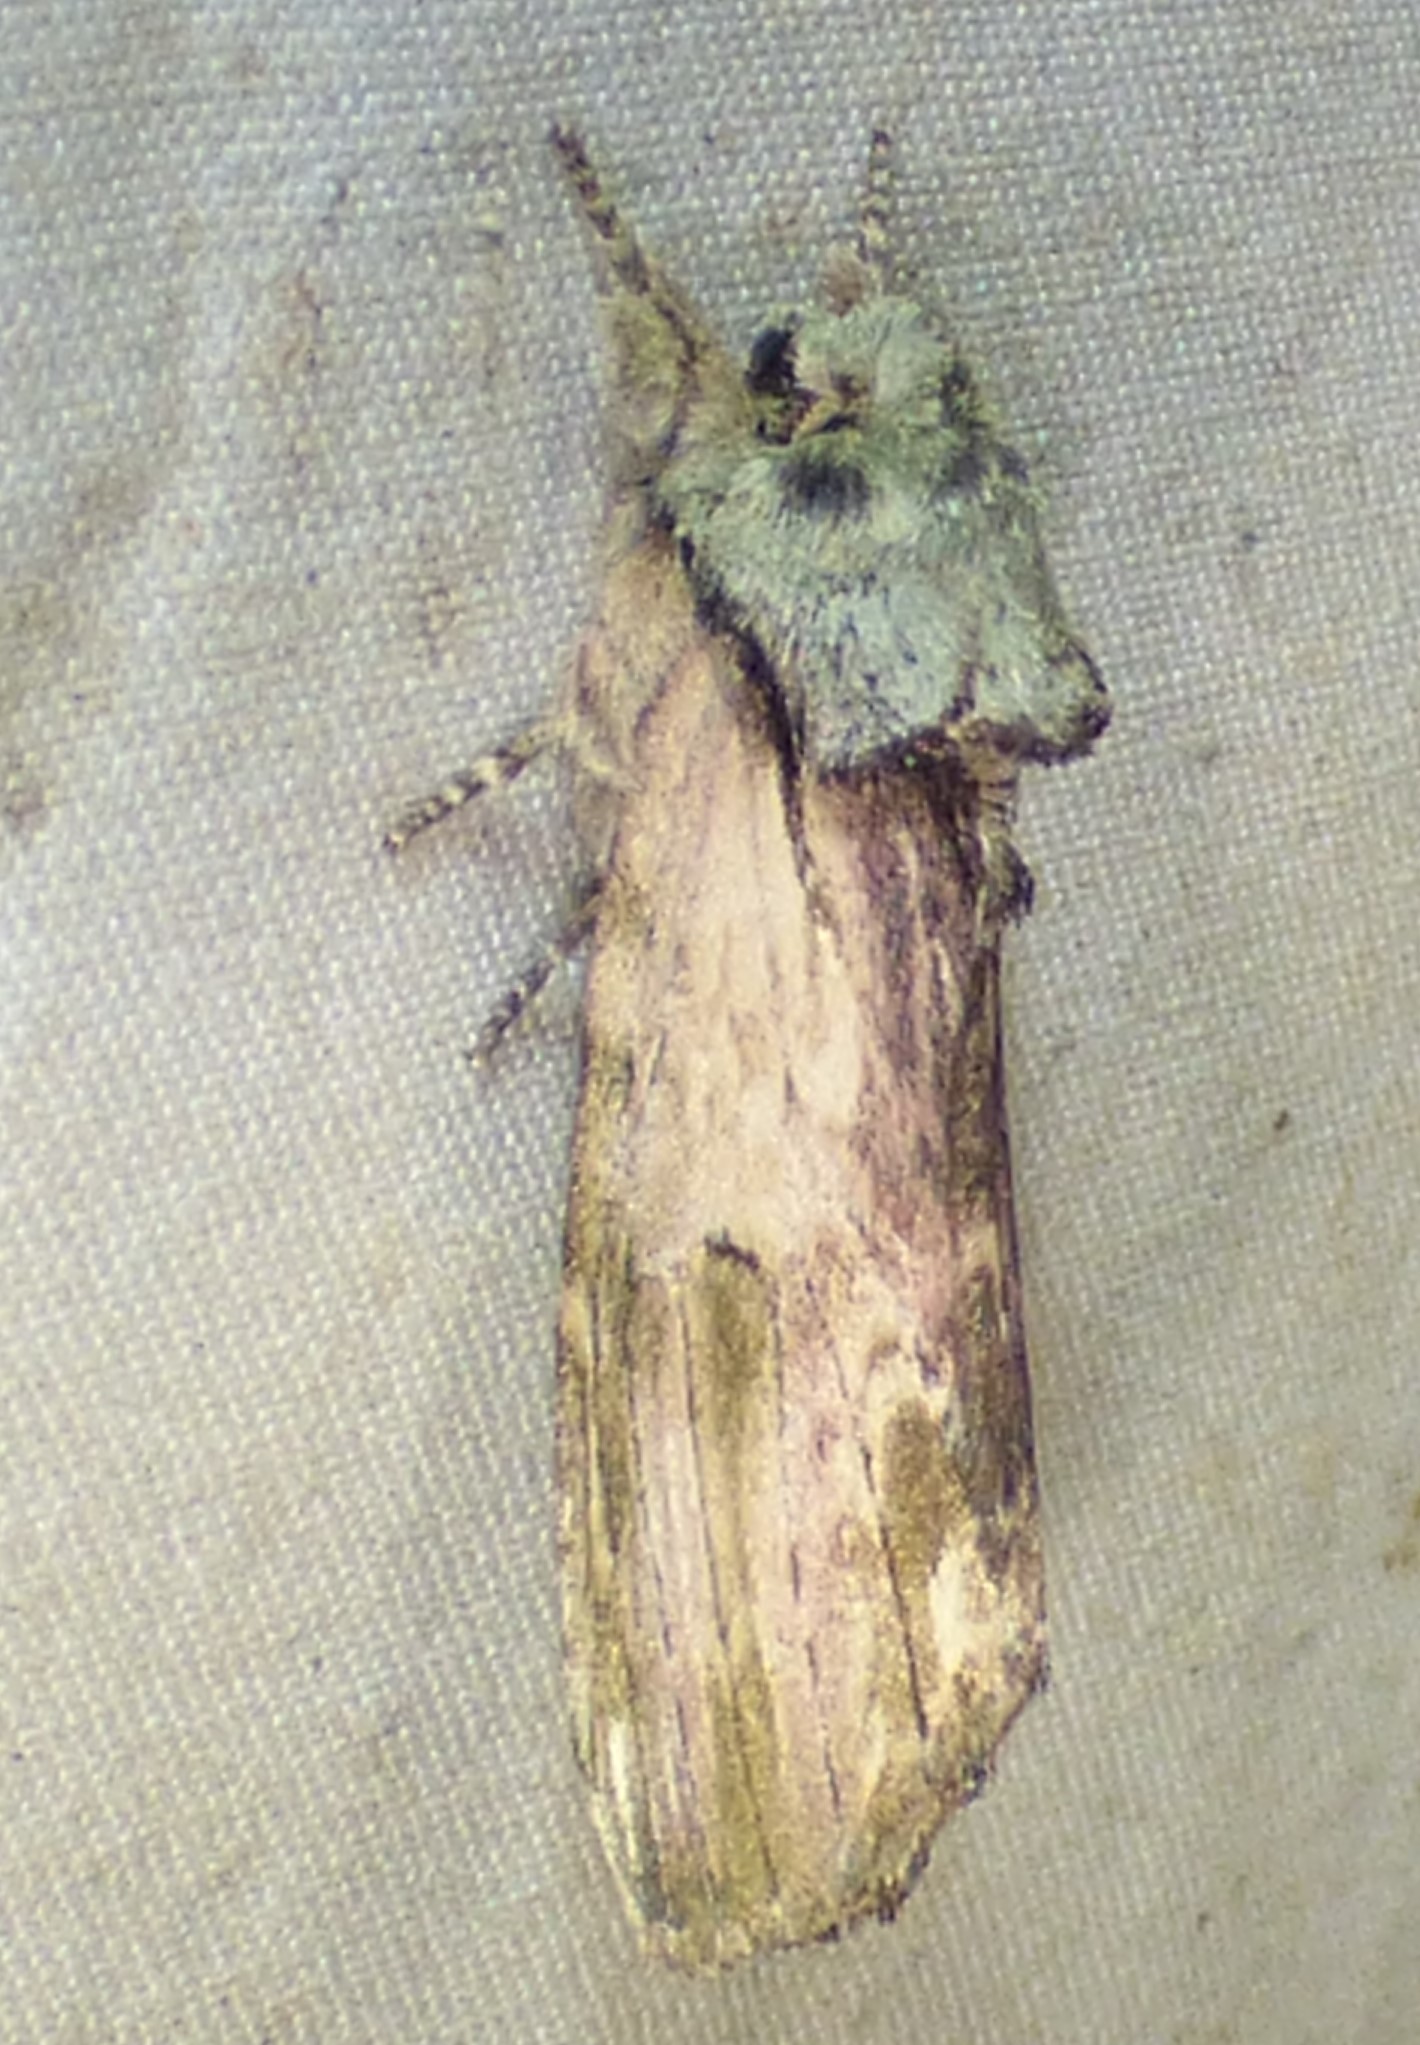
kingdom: Animalia
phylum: Arthropoda
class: Insecta
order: Lepidoptera
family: Notodontidae
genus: Schizura
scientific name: Schizura
